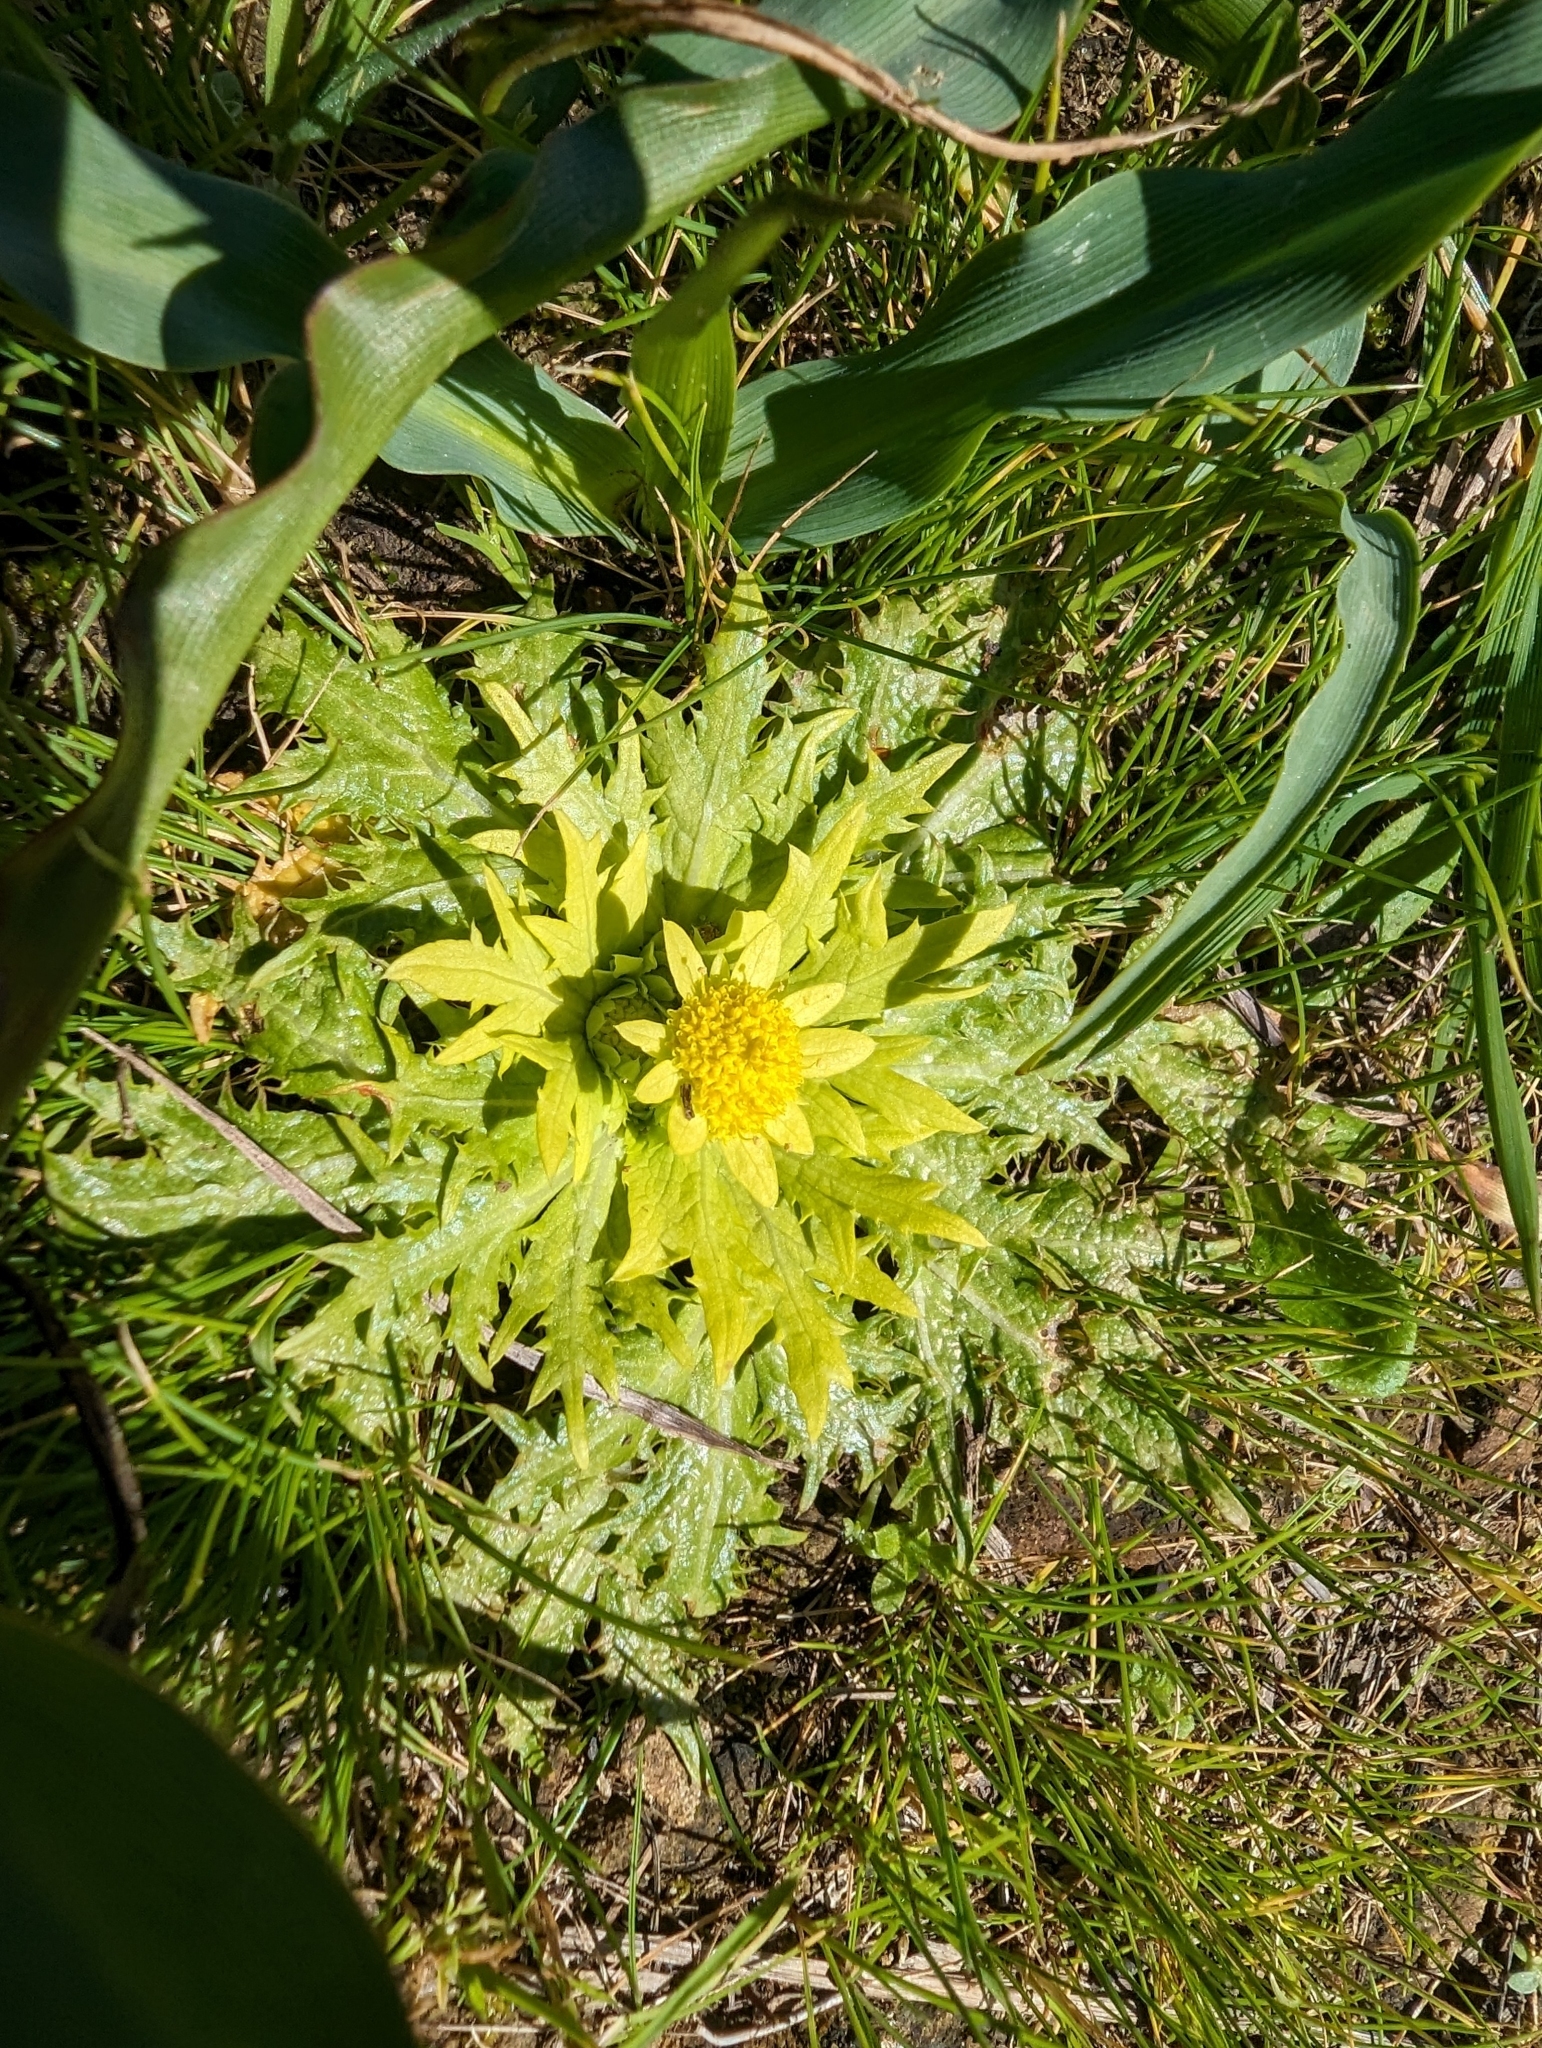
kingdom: Plantae
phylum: Tracheophyta
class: Magnoliopsida
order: Apiales
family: Apiaceae
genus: Sanicula
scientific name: Sanicula arctopoides
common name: Footsteps-of-spring
